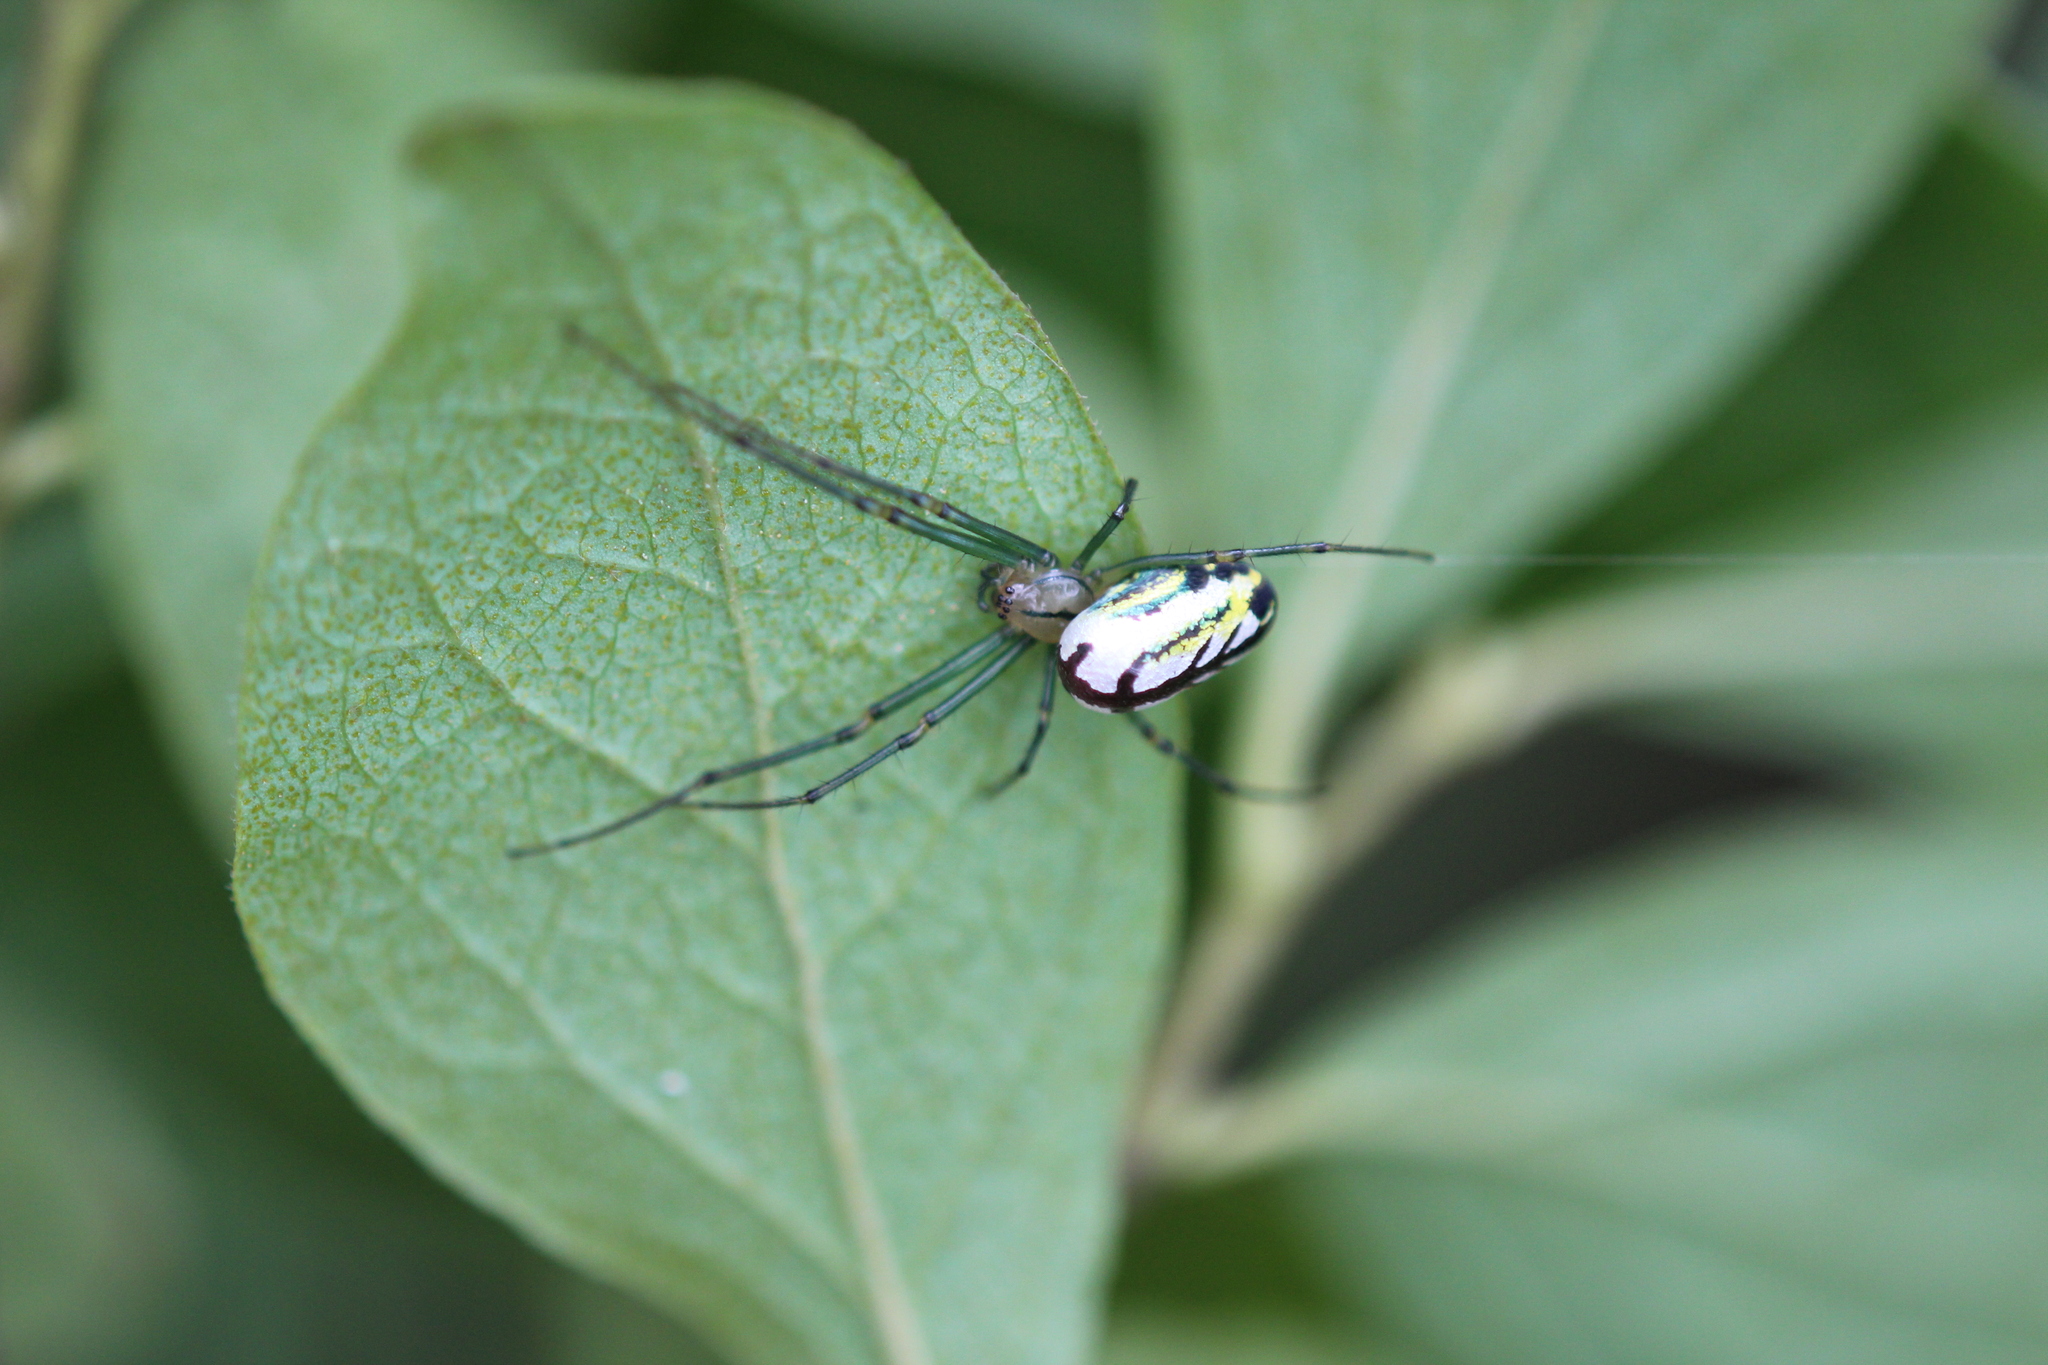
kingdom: Animalia
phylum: Arthropoda
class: Arachnida
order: Araneae
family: Tetragnathidae
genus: Leucauge
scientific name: Leucauge venusta
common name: Longjawed orb weavers
